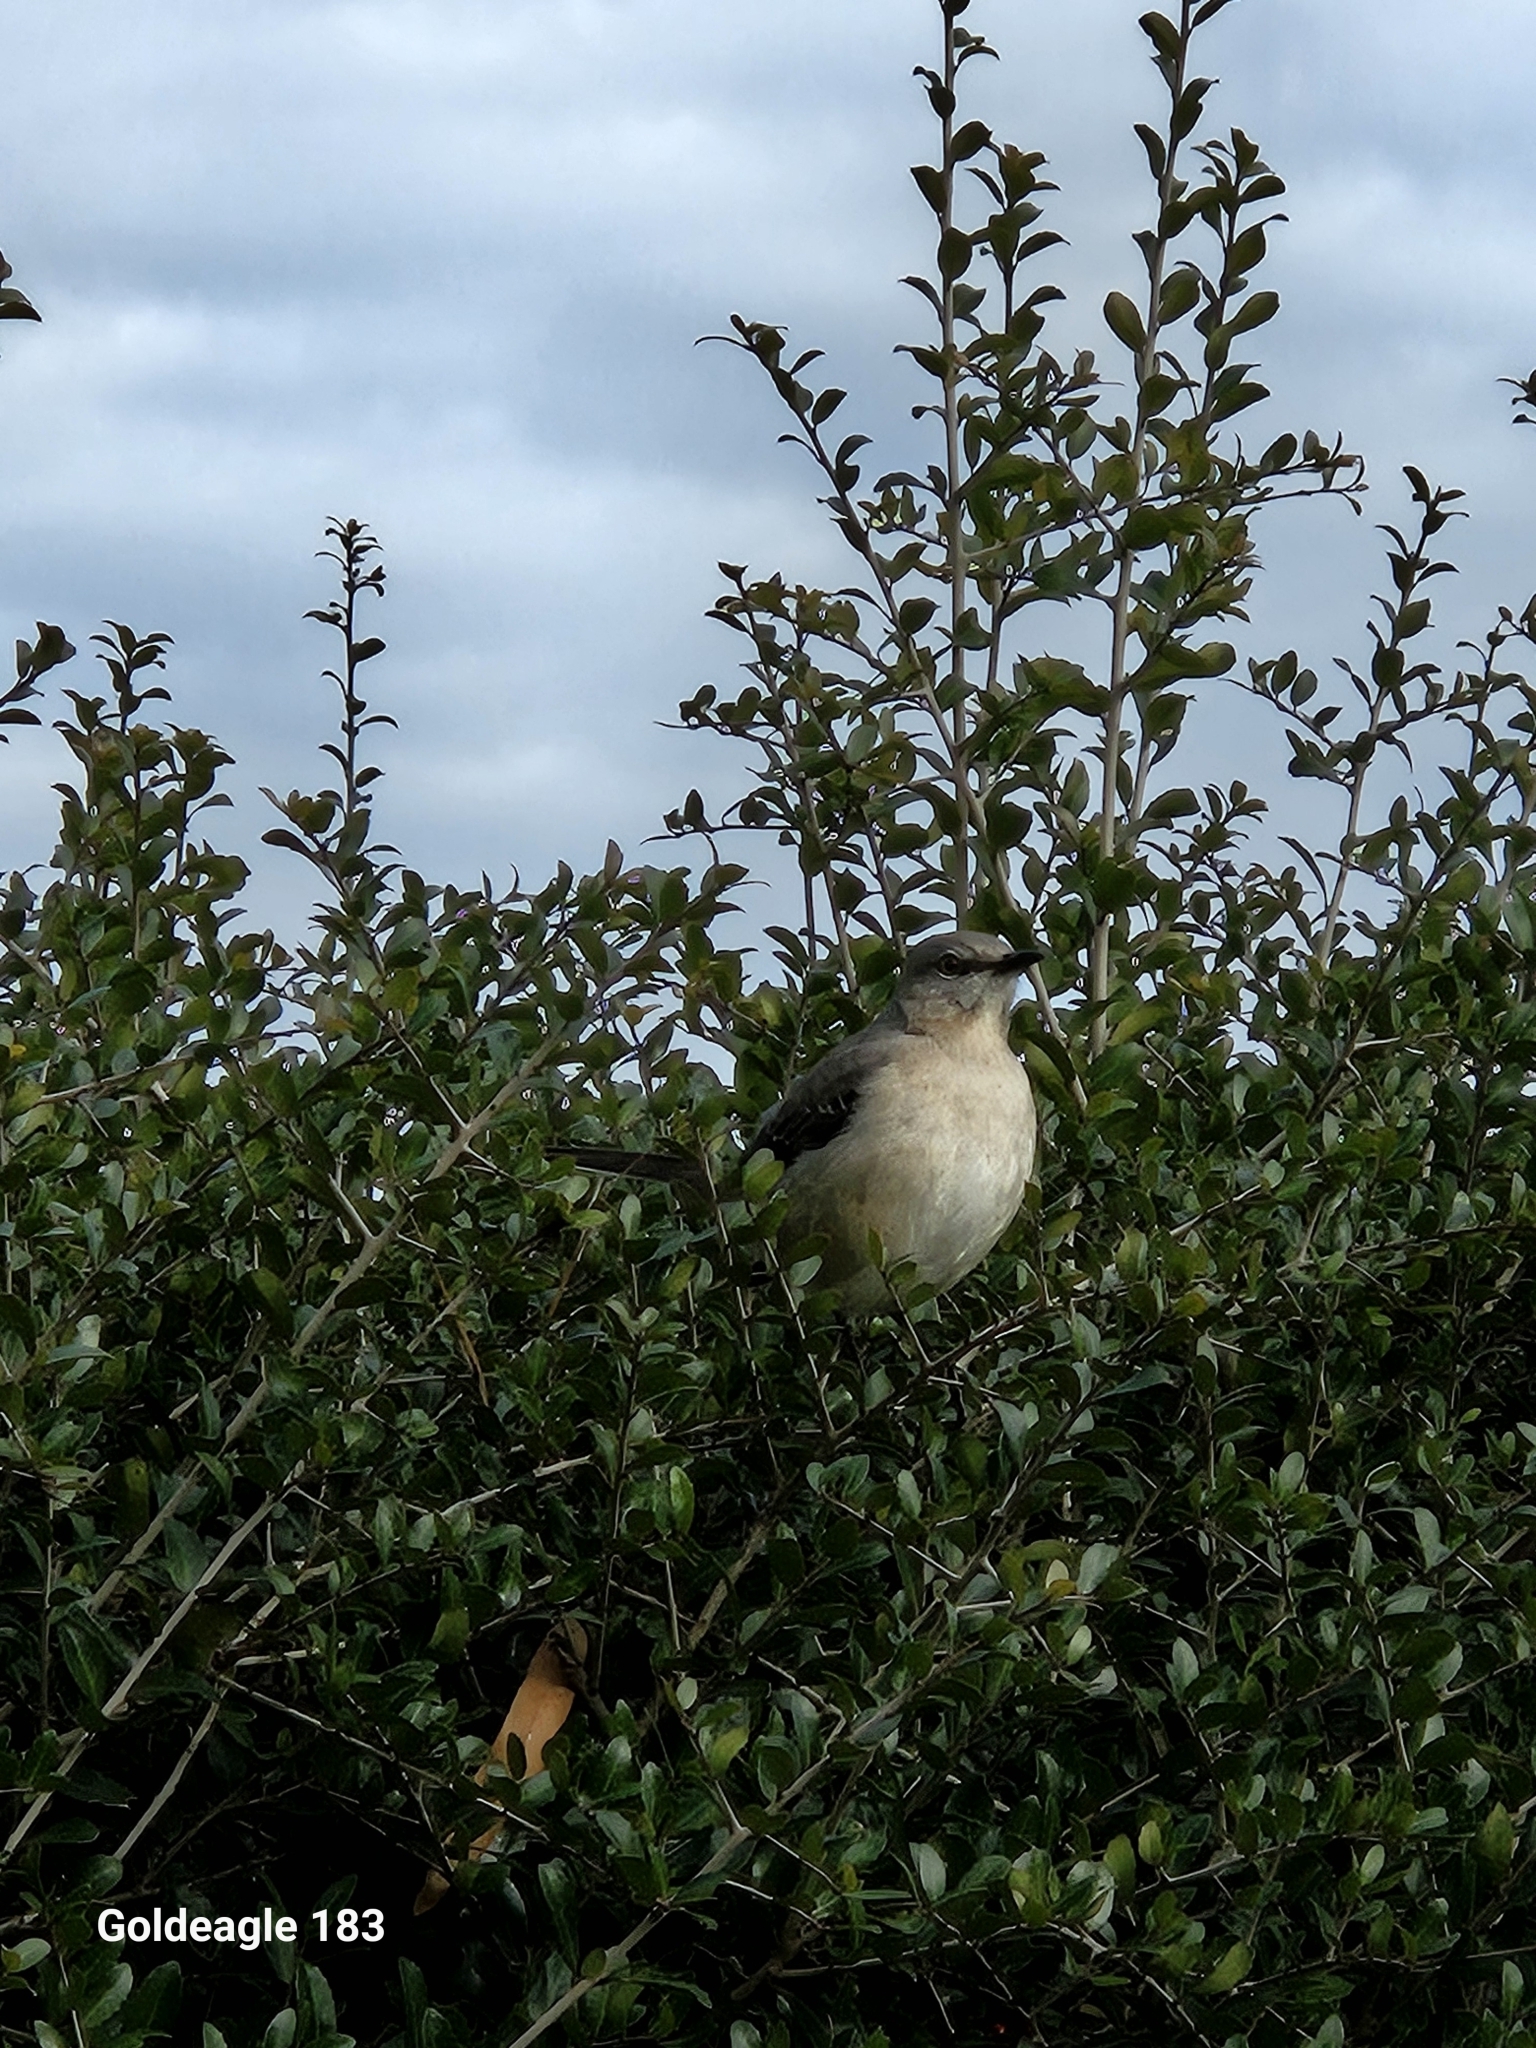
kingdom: Animalia
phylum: Chordata
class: Aves
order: Passeriformes
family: Mimidae
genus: Mimus
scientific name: Mimus polyglottos
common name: Northern mockingbird
